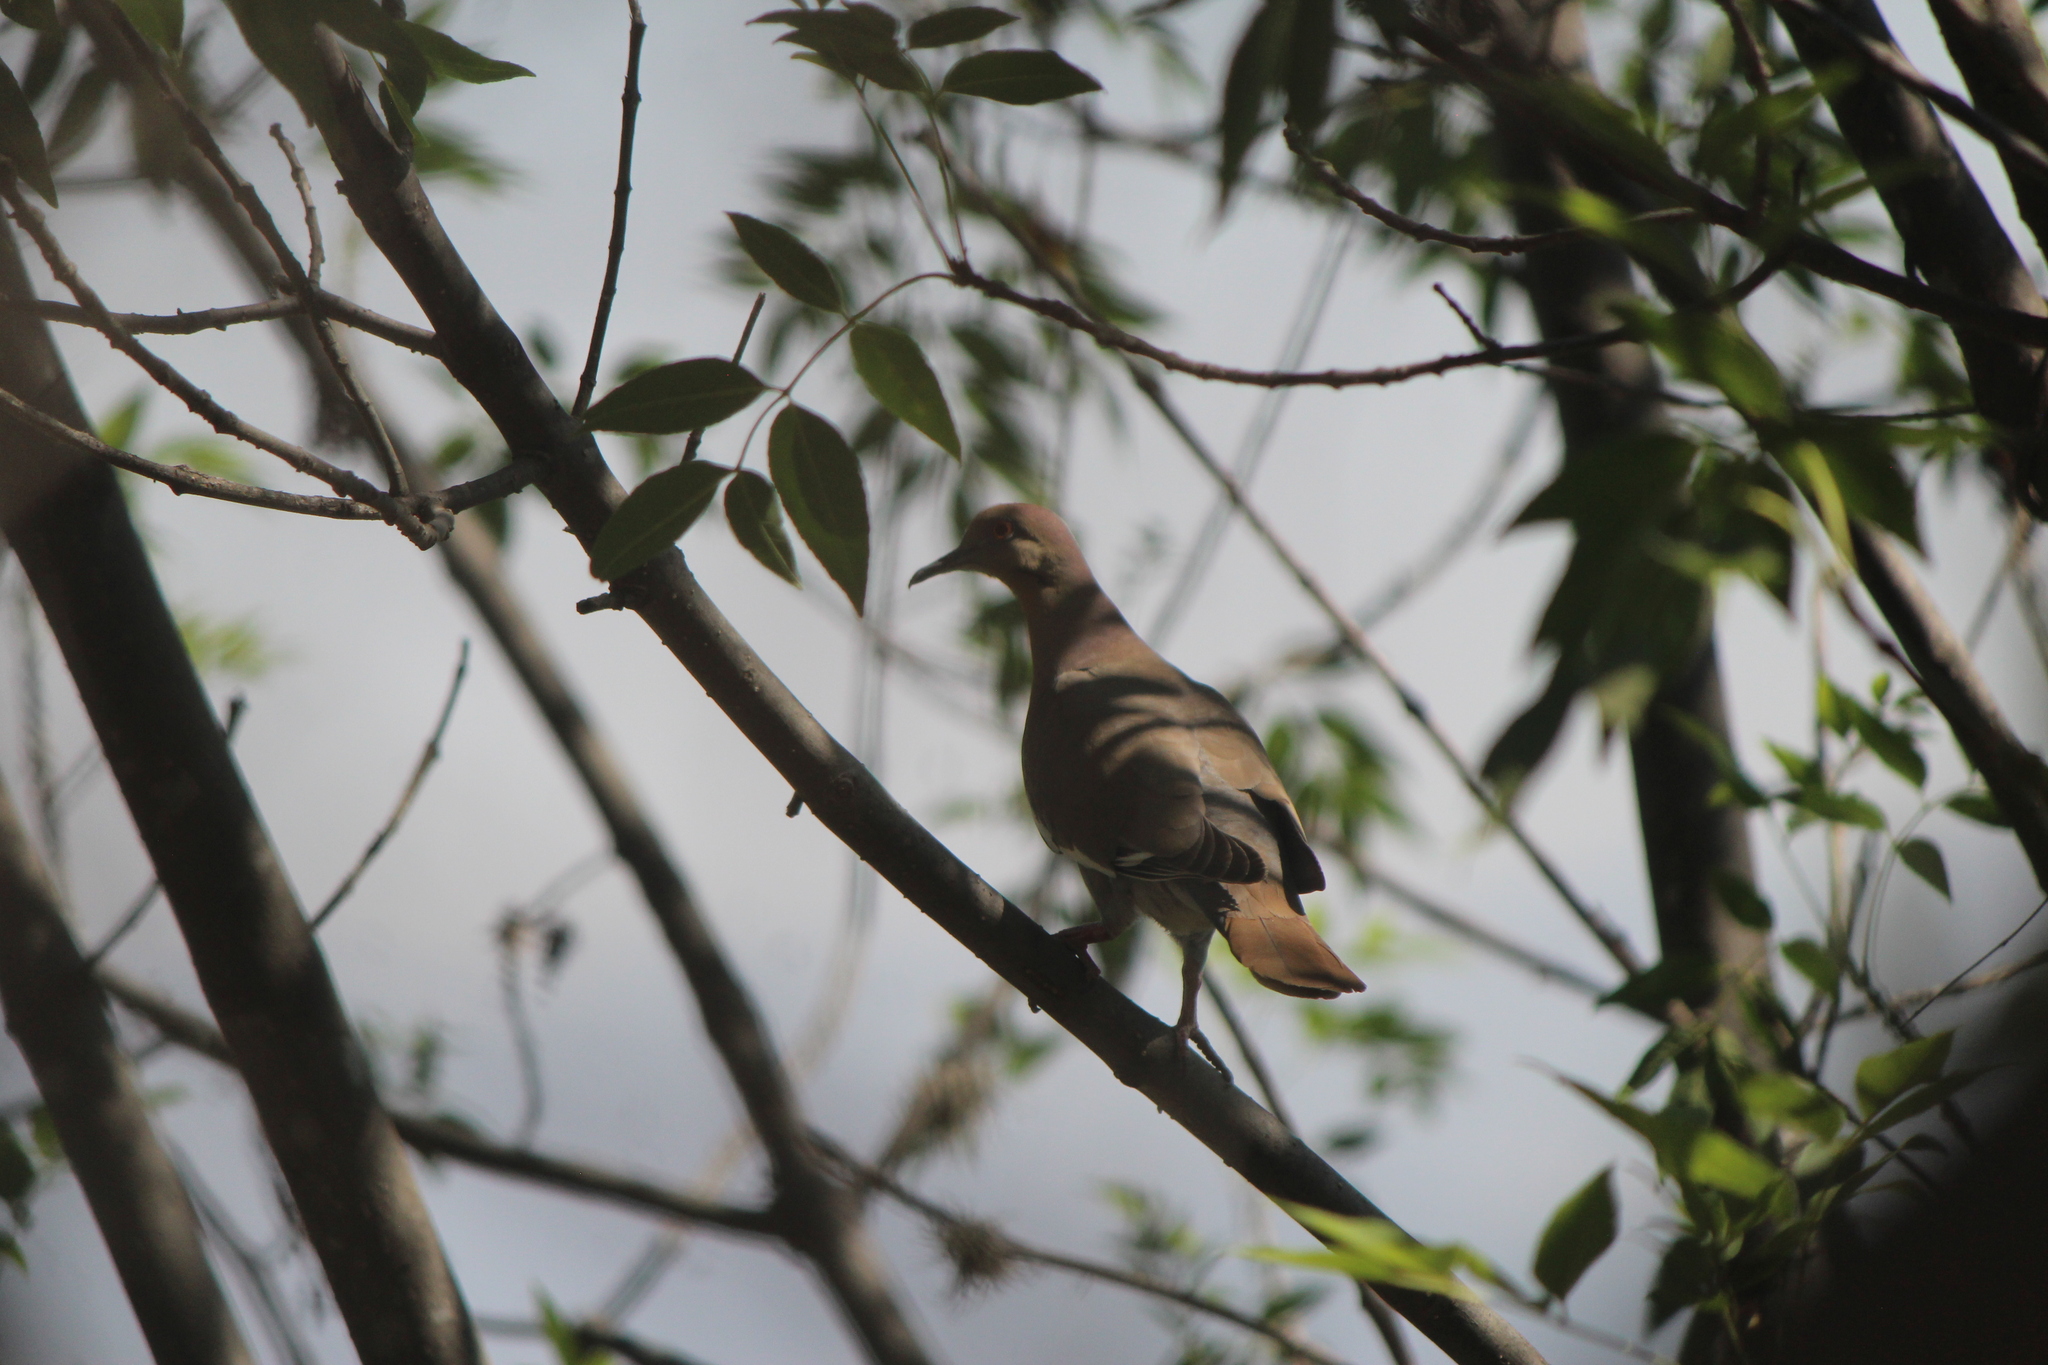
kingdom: Animalia
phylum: Chordata
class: Aves
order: Columbiformes
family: Columbidae
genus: Zenaida
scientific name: Zenaida asiatica
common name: White-winged dove
